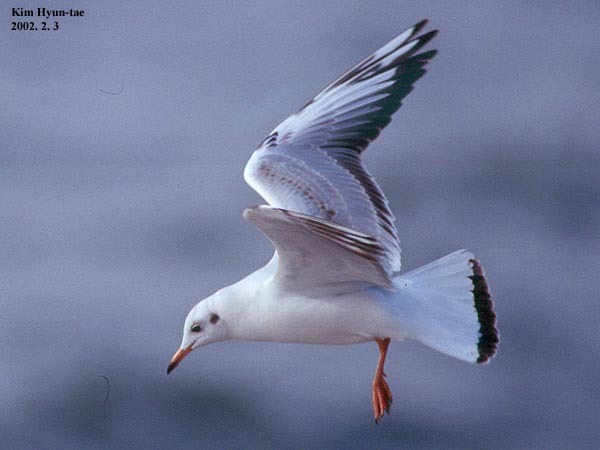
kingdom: Animalia
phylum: Chordata
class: Aves
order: Charadriiformes
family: Laridae
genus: Chroicocephalus
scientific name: Chroicocephalus ridibundus
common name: Black-headed gull
